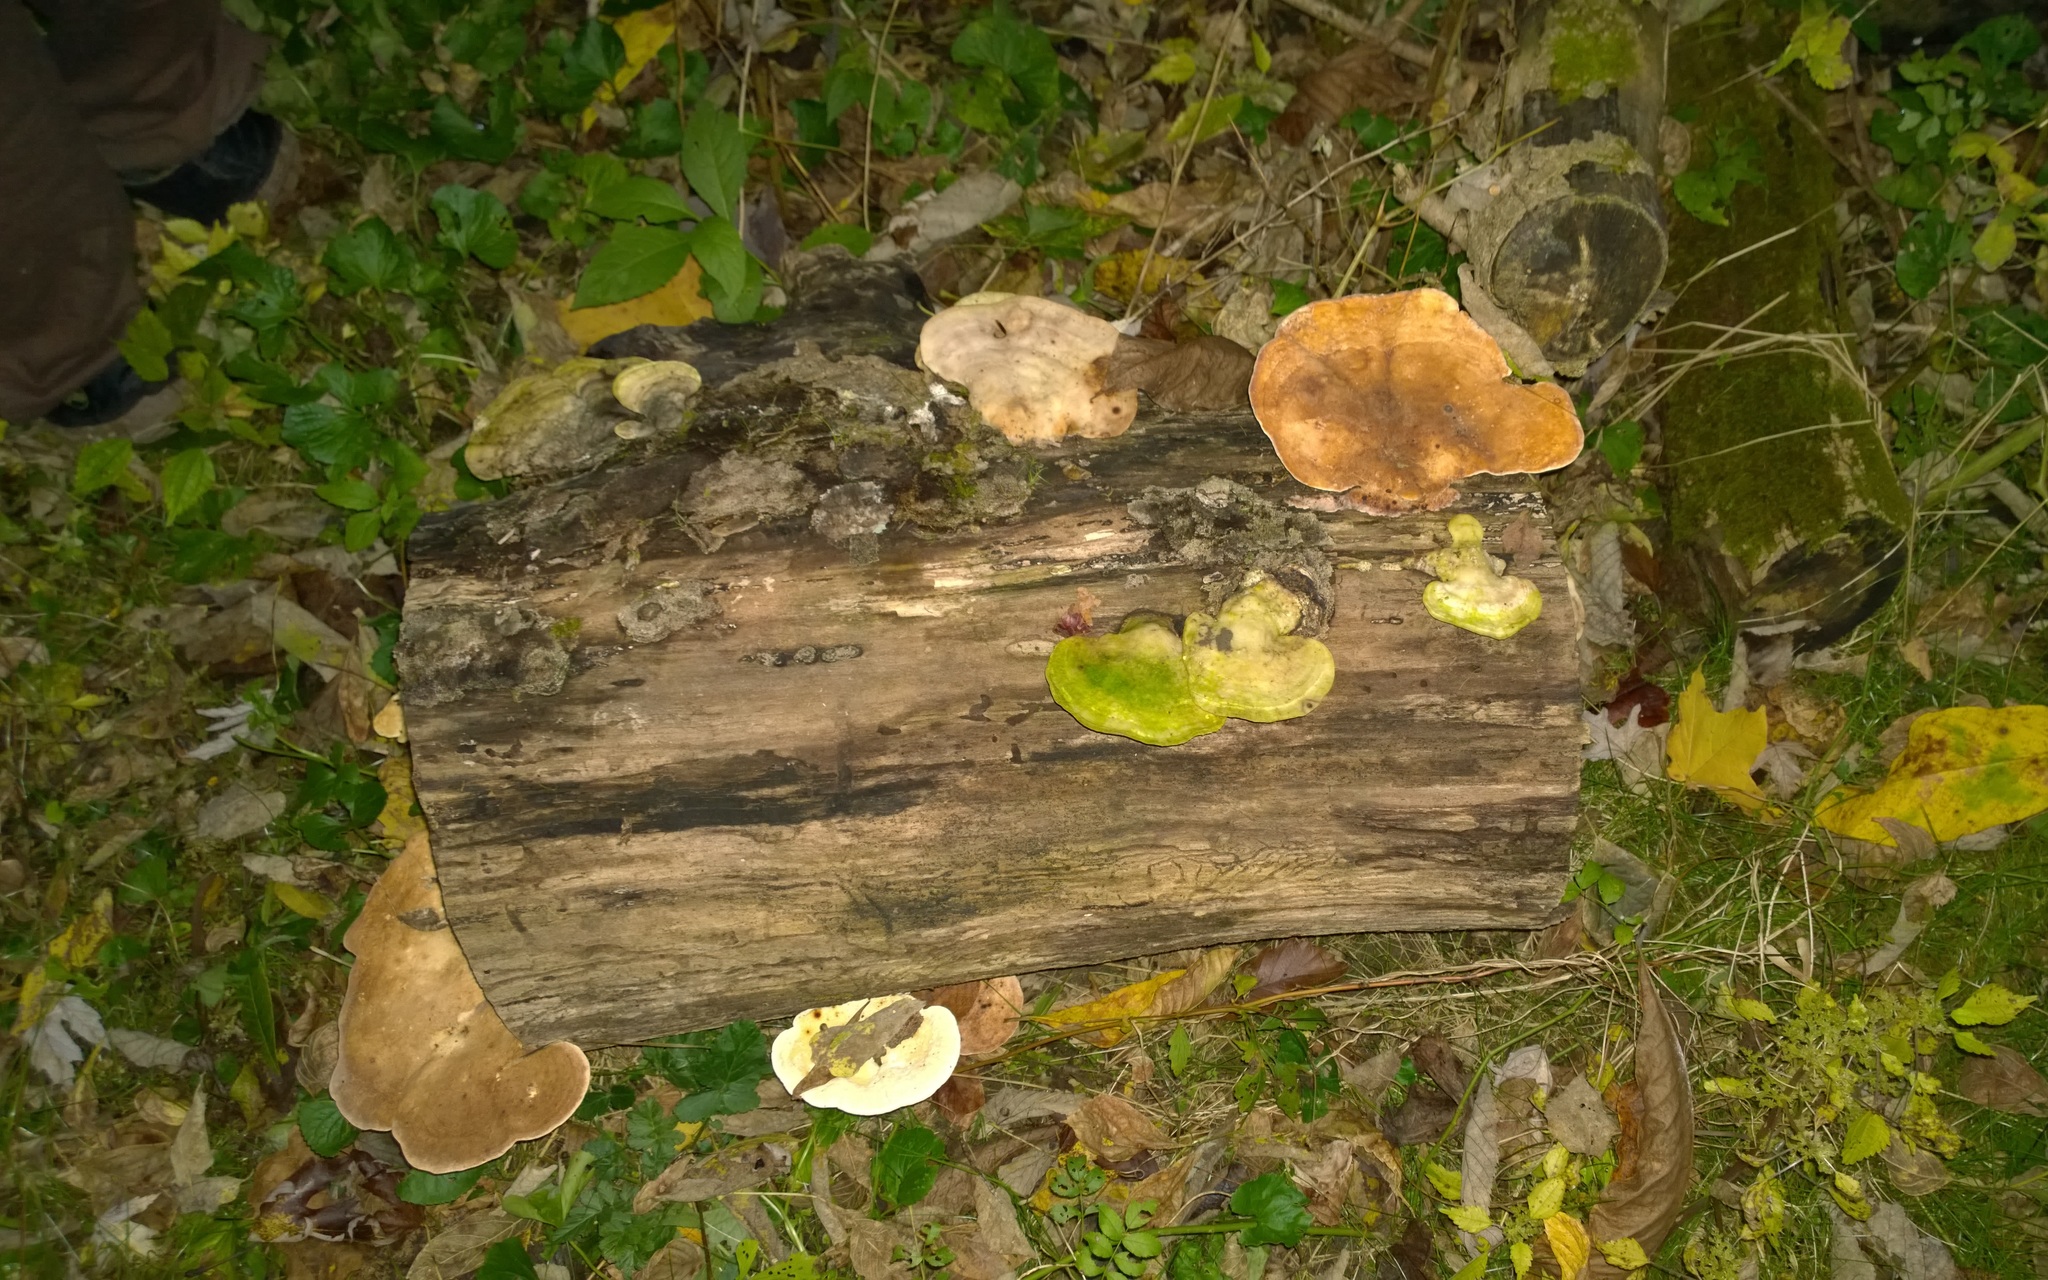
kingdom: Fungi
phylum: Basidiomycota
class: Agaricomycetes
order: Polyporales
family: Polyporaceae
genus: Trametes
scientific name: Trametes
